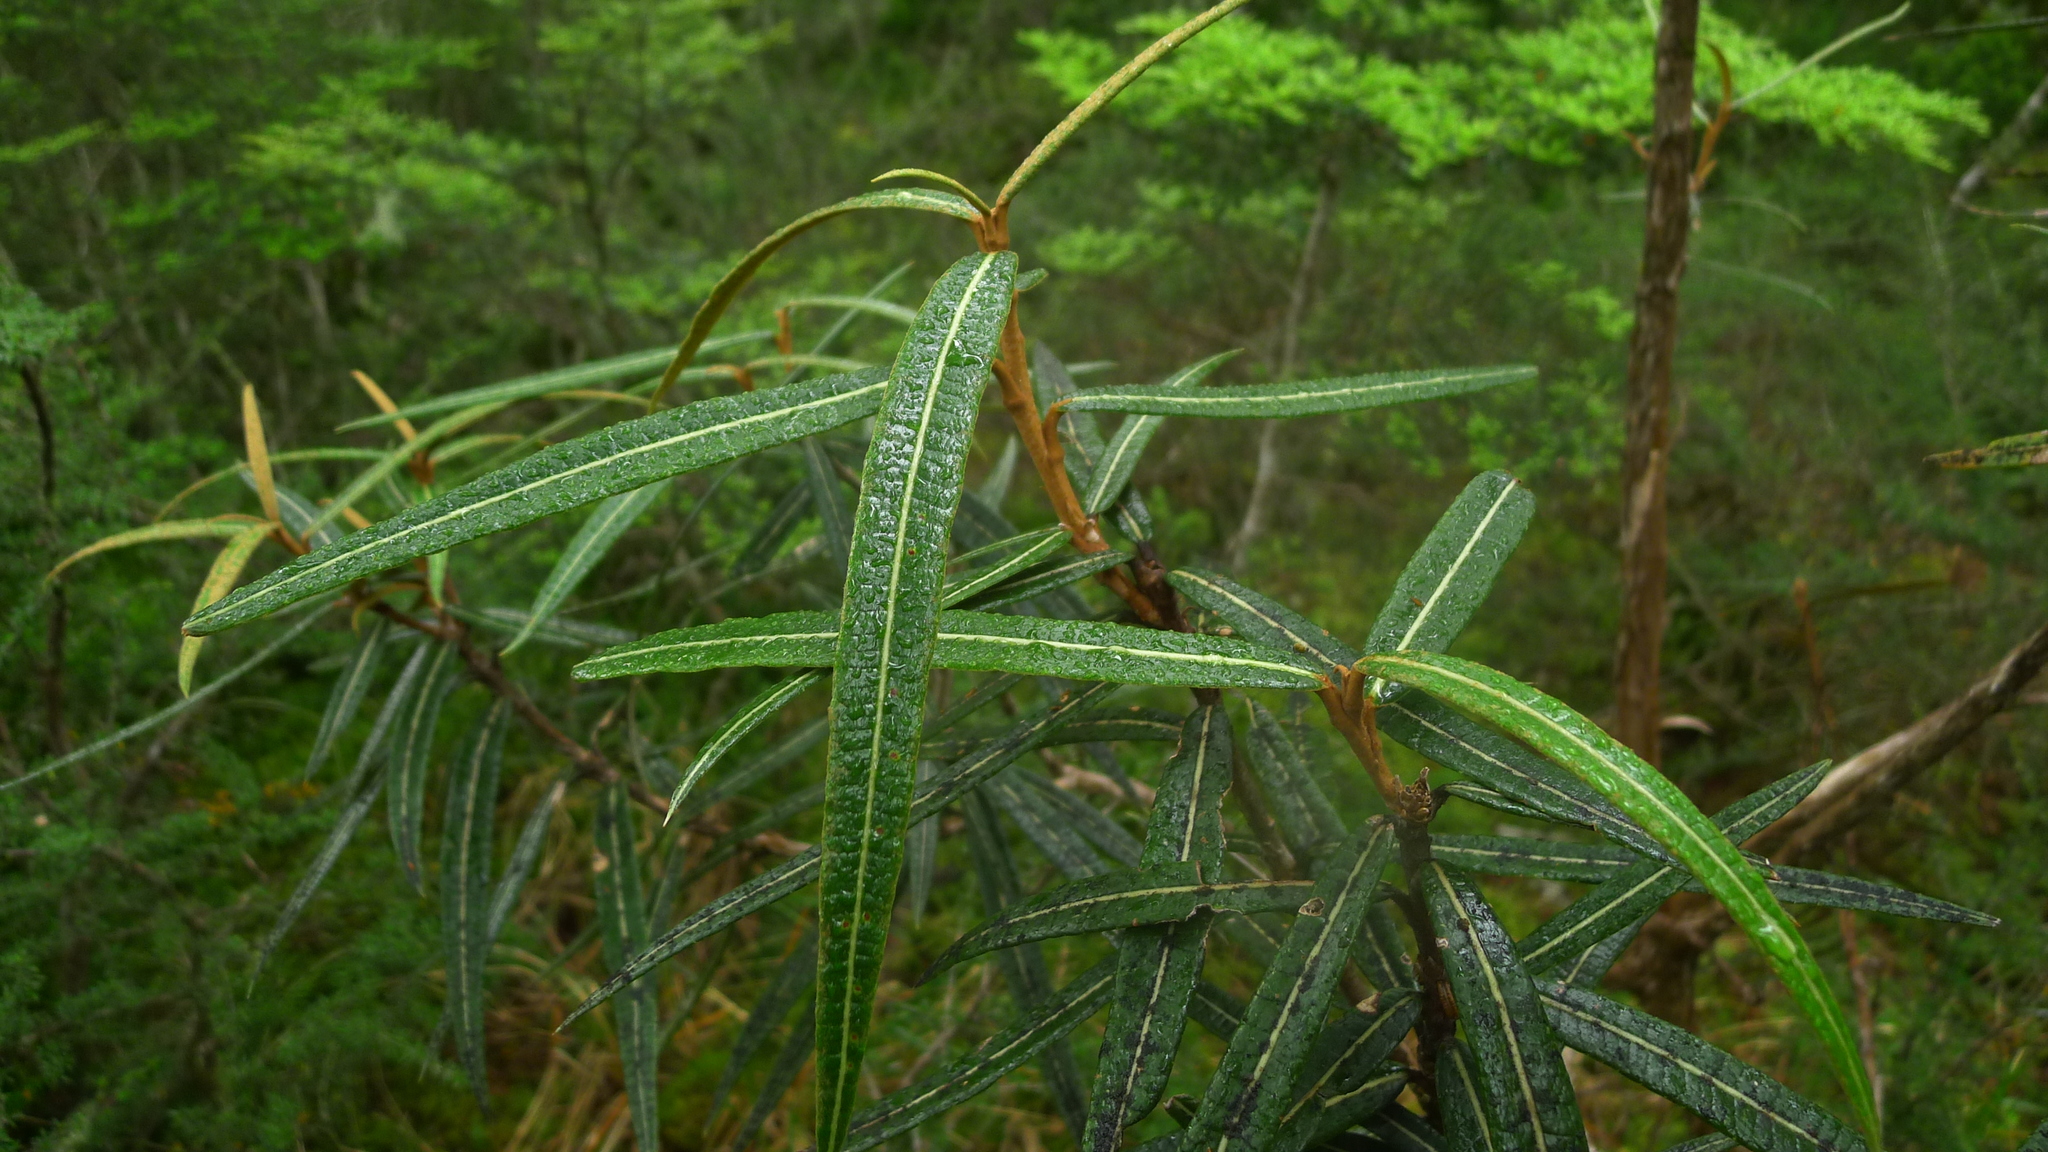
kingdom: Plantae
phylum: Tracheophyta
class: Magnoliopsida
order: Asterales
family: Asteraceae
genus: Olearia
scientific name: Olearia lacunosa
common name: Lancewood tree daisy
